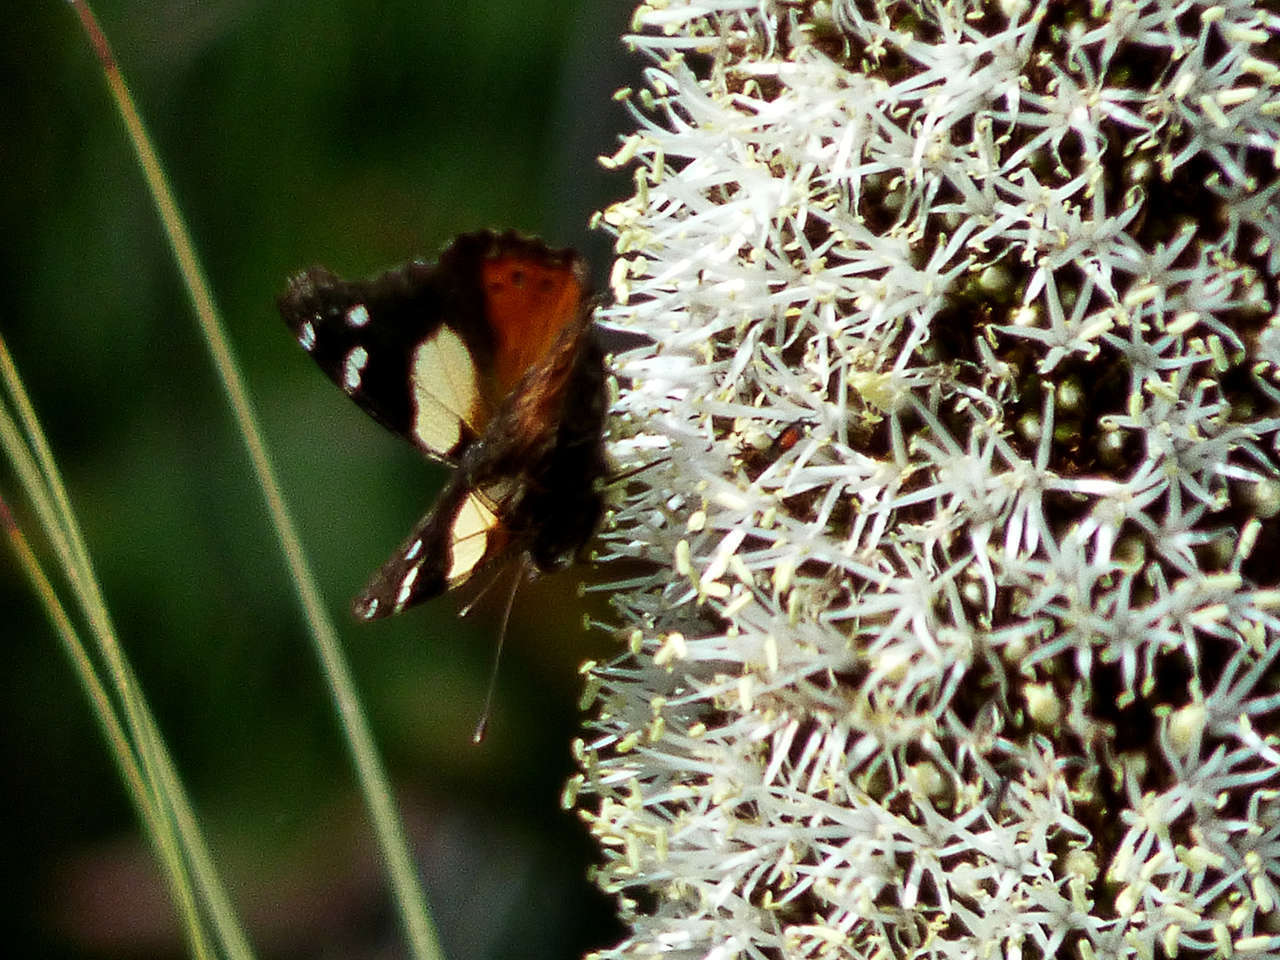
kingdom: Animalia
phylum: Arthropoda
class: Insecta
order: Lepidoptera
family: Nymphalidae
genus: Vanessa
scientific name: Vanessa itea
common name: Yellow admiral
